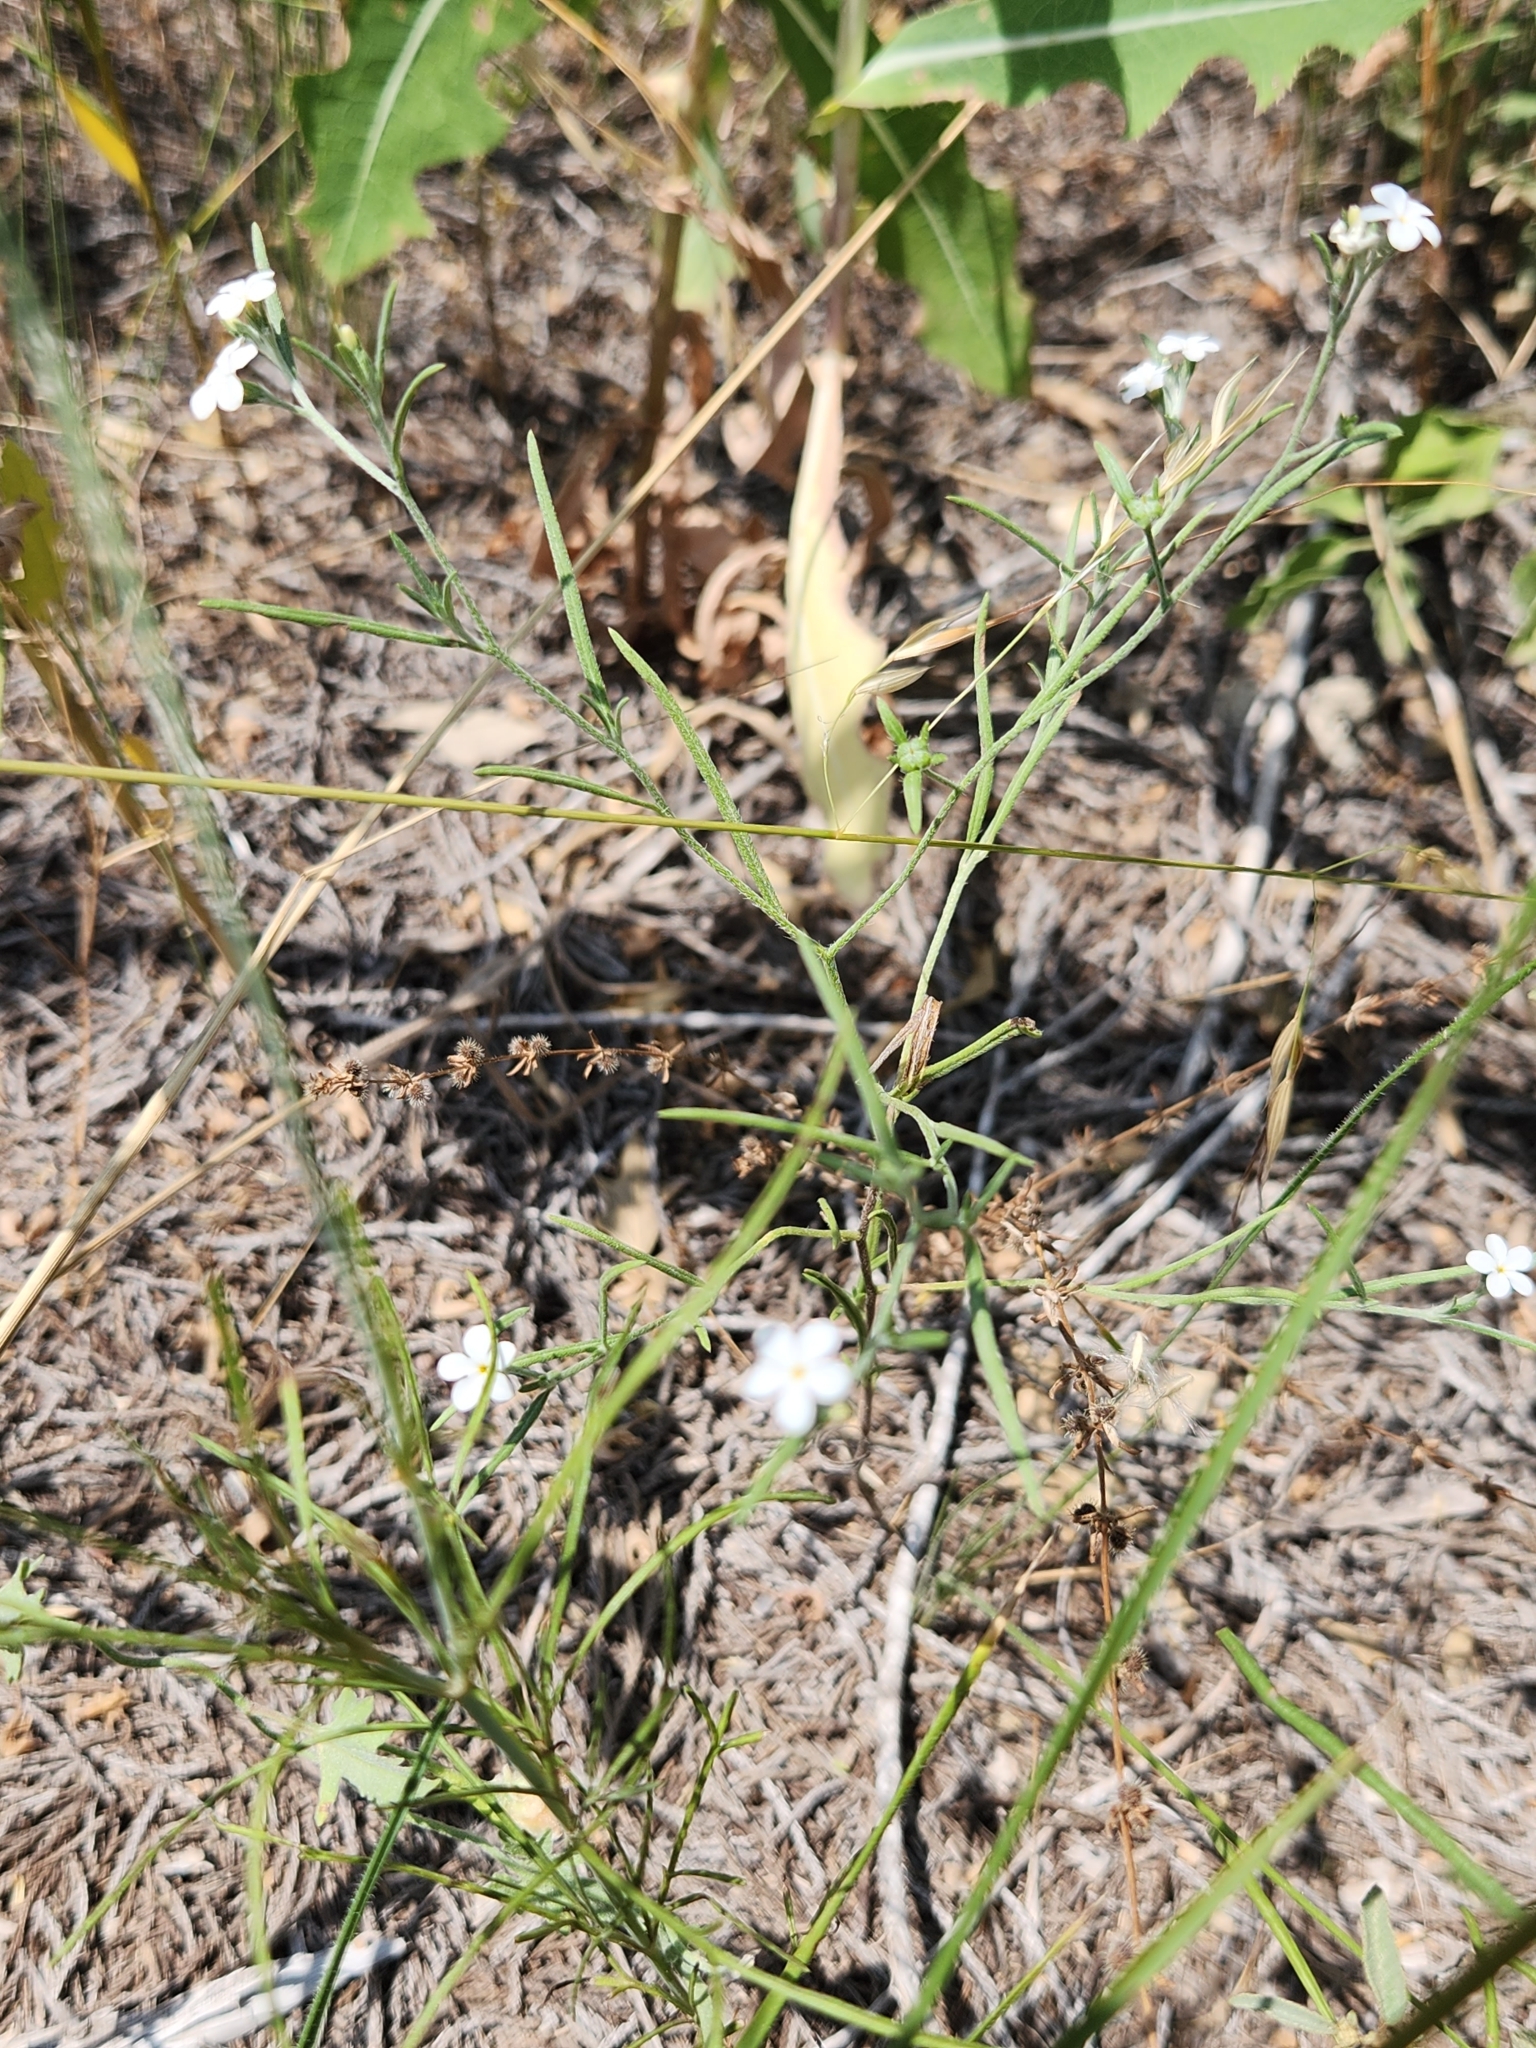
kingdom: Plantae
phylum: Tracheophyta
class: Magnoliopsida
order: Boraginales
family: Heliotropiaceae
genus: Euploca
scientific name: Euploca tenella
